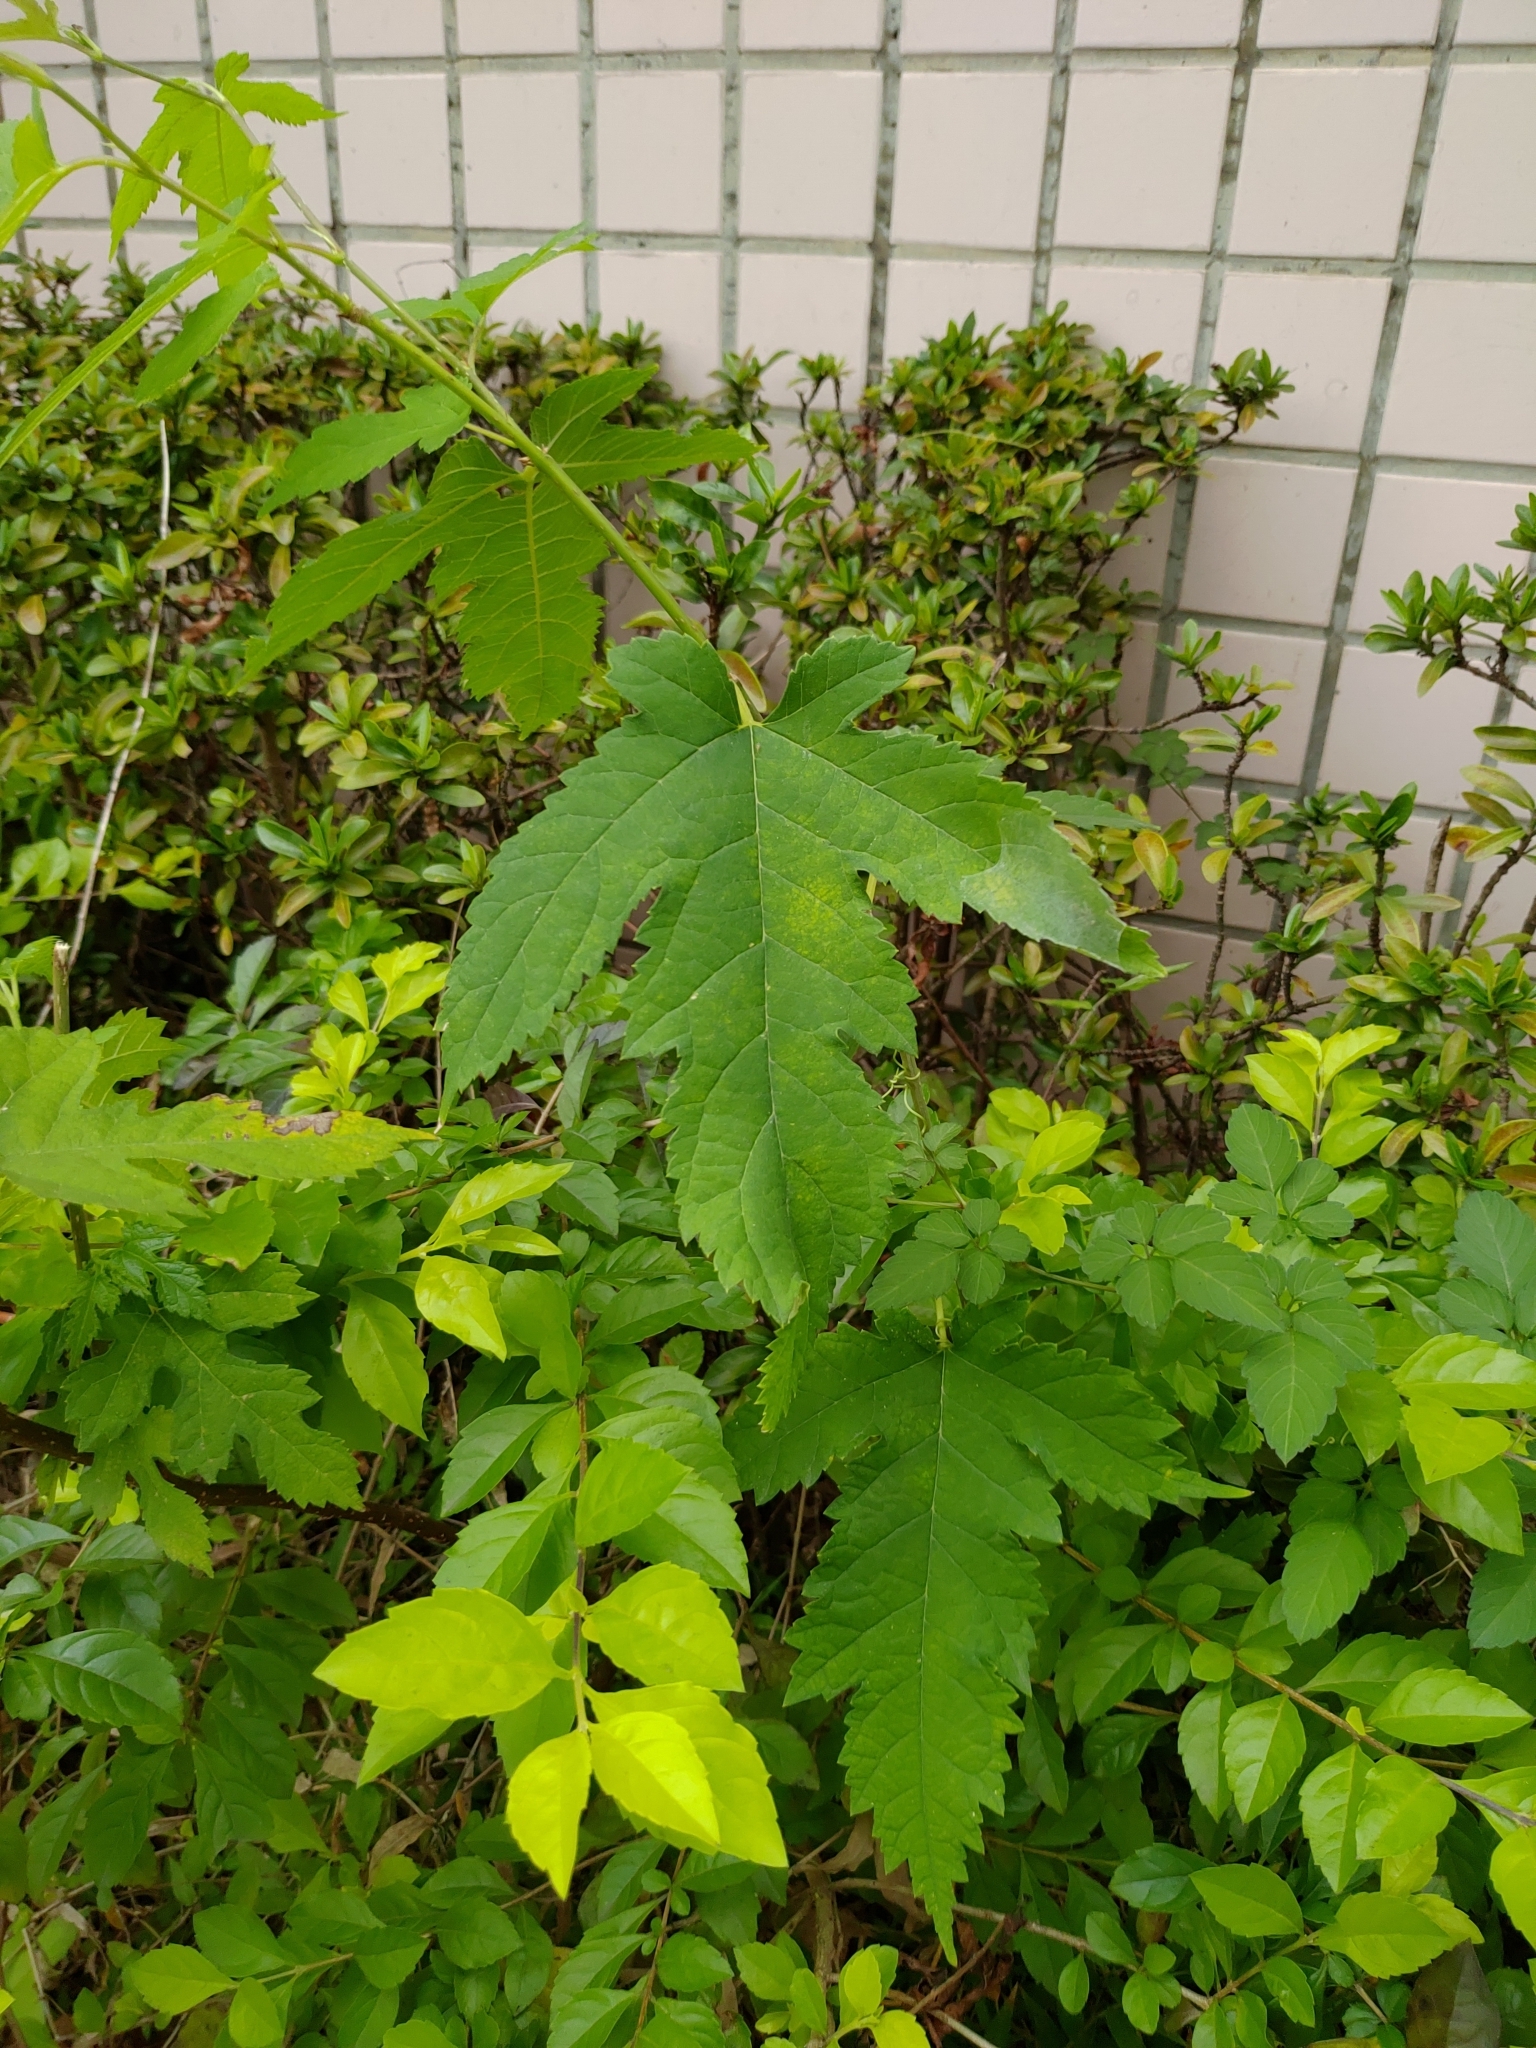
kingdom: Plantae
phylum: Tracheophyta
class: Magnoliopsida
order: Rosales
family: Moraceae
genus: Morus
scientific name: Morus indica
